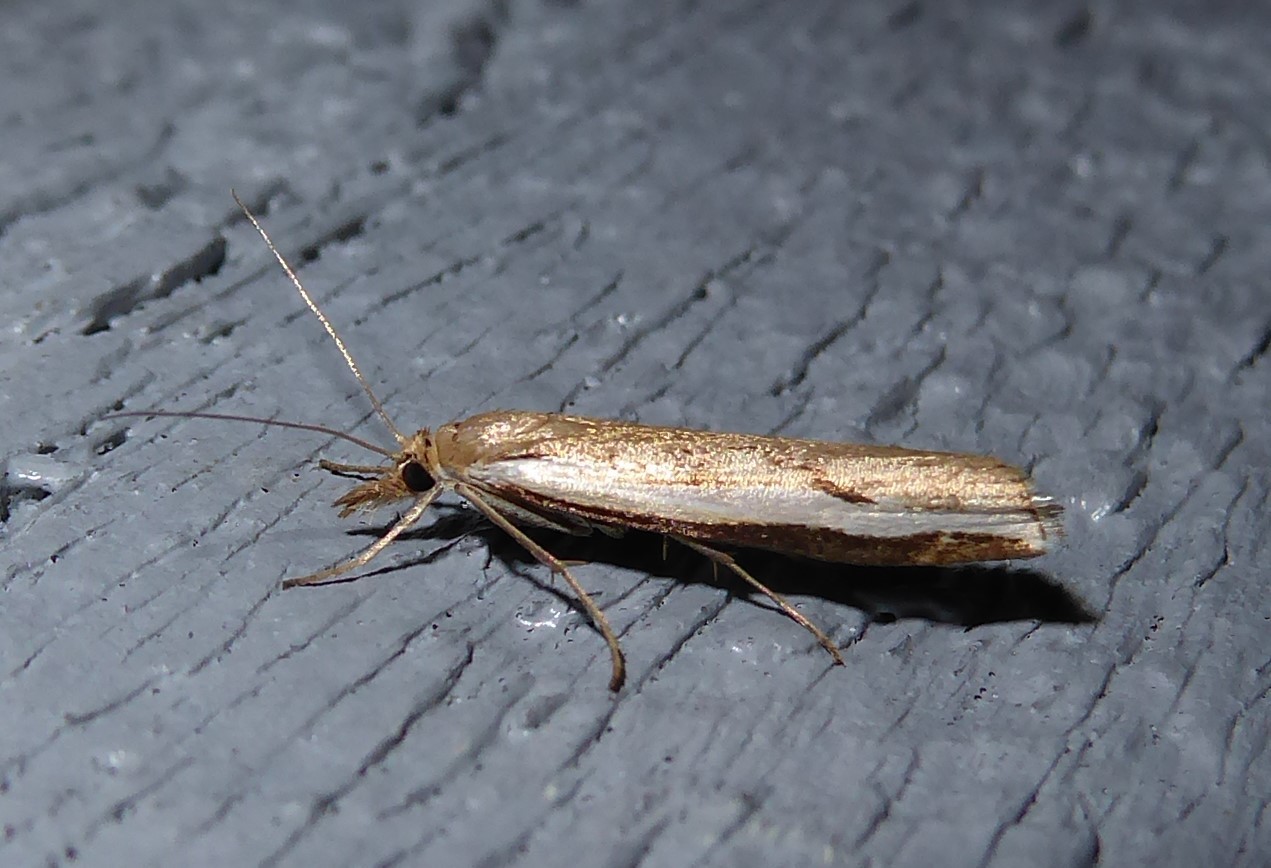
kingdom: Animalia
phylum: Arthropoda
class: Insecta
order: Lepidoptera
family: Crambidae
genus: Orocrambus
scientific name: Orocrambus flexuosellus
